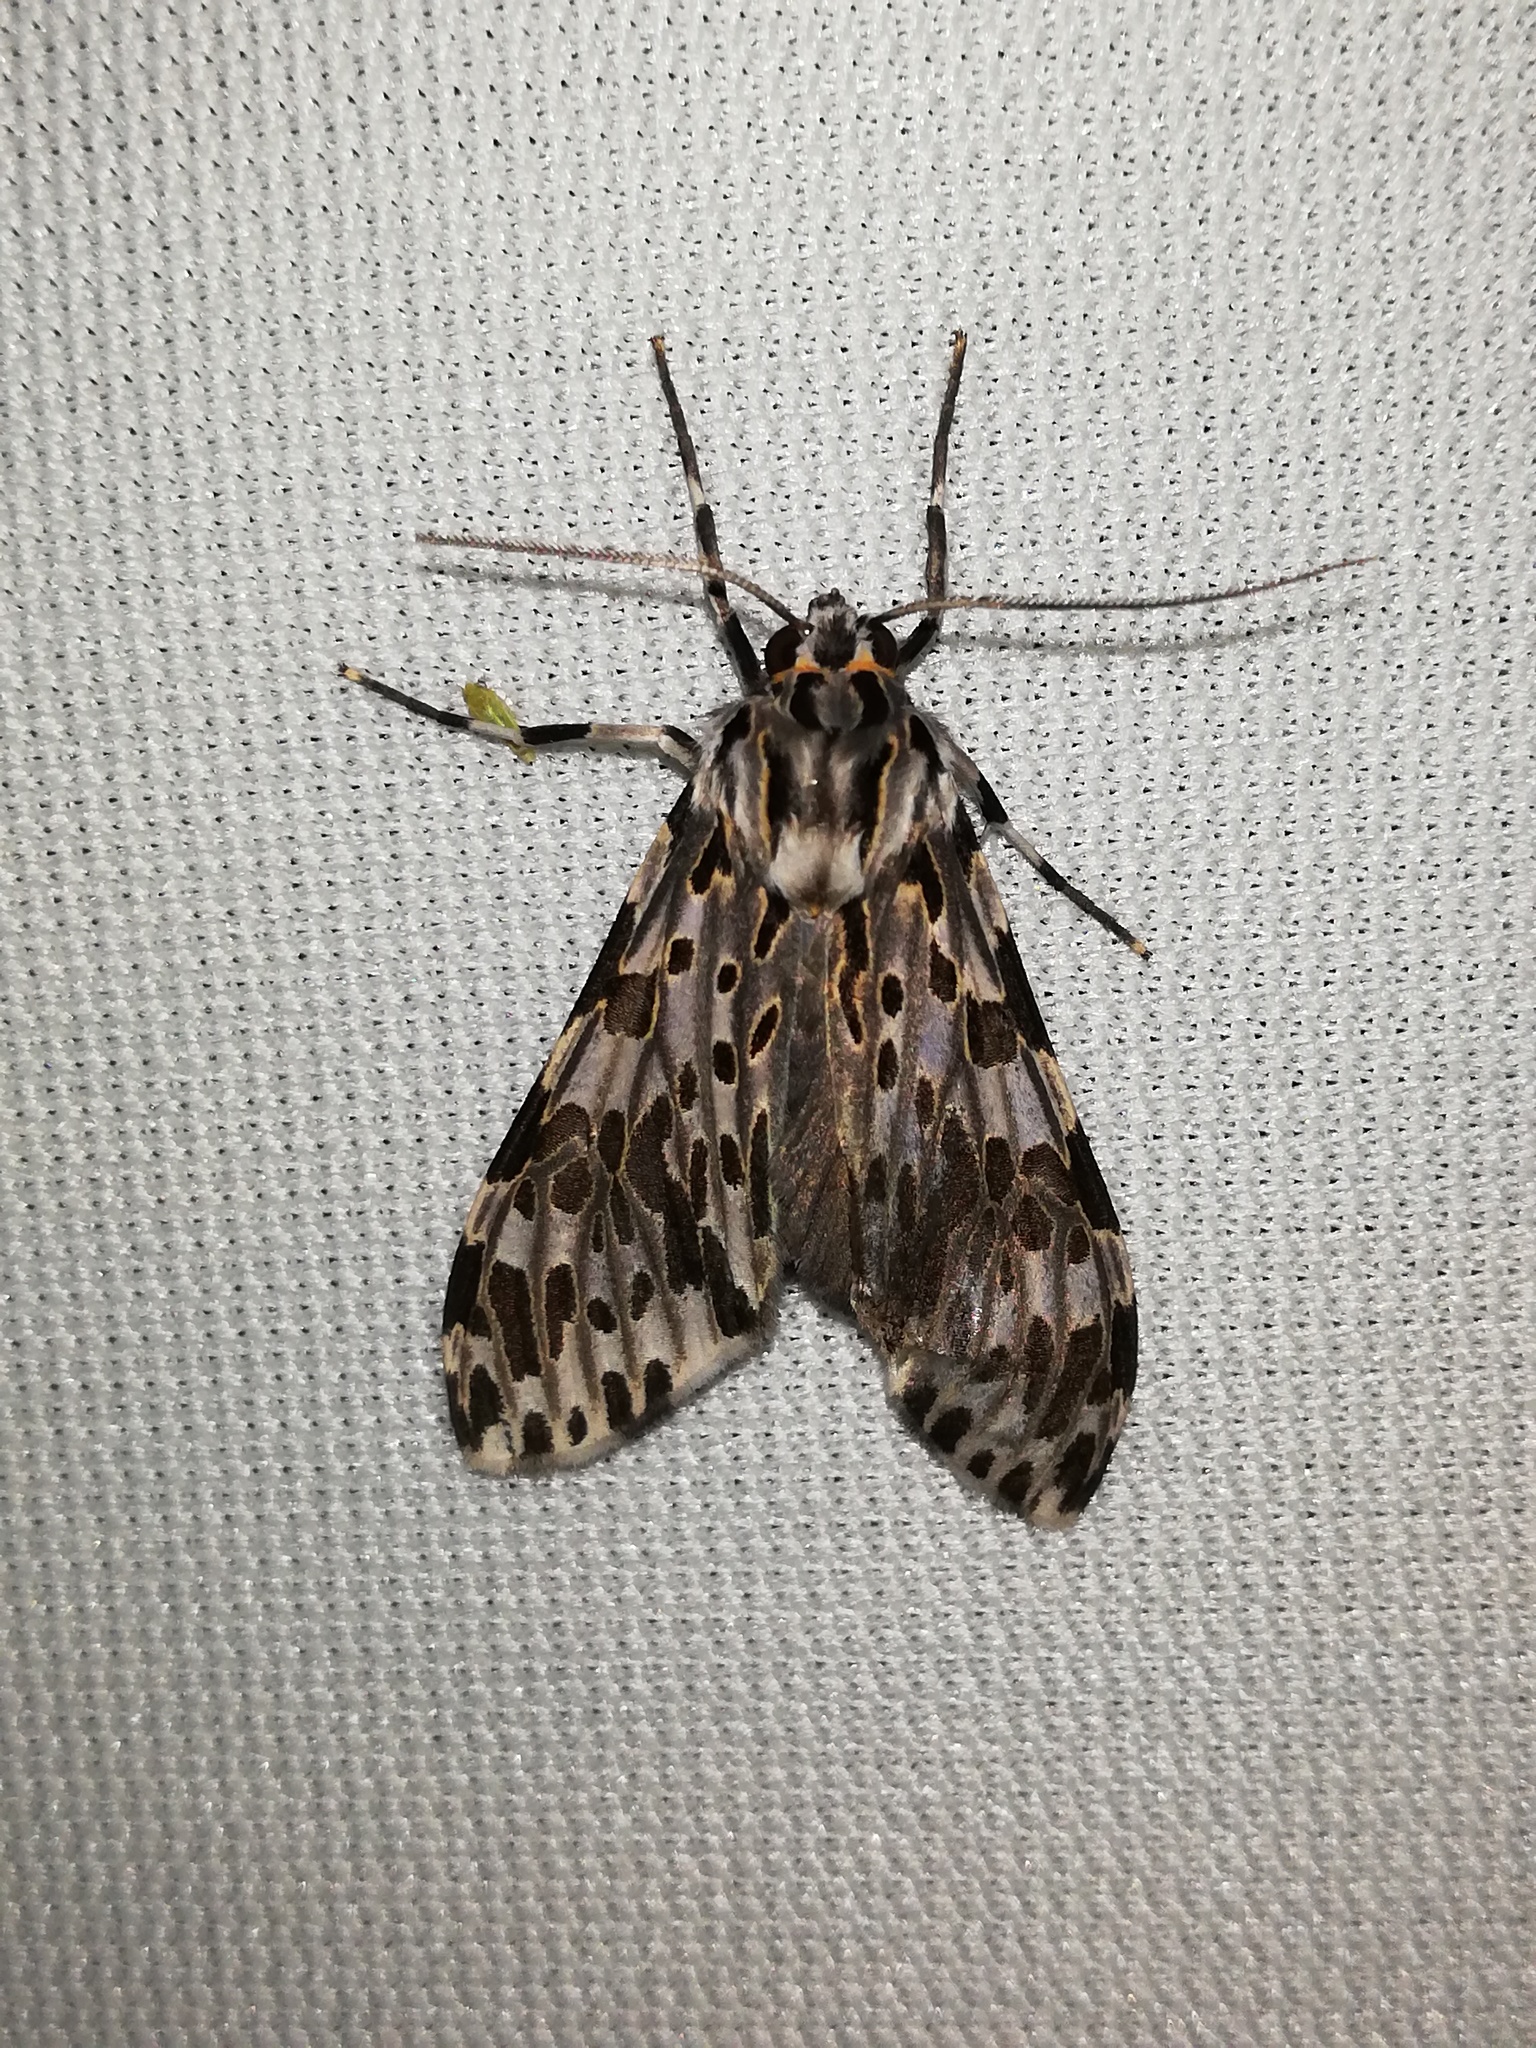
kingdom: Animalia
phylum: Arthropoda
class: Insecta
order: Lepidoptera
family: Erebidae
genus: Eucereon
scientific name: Eucereon confinis
